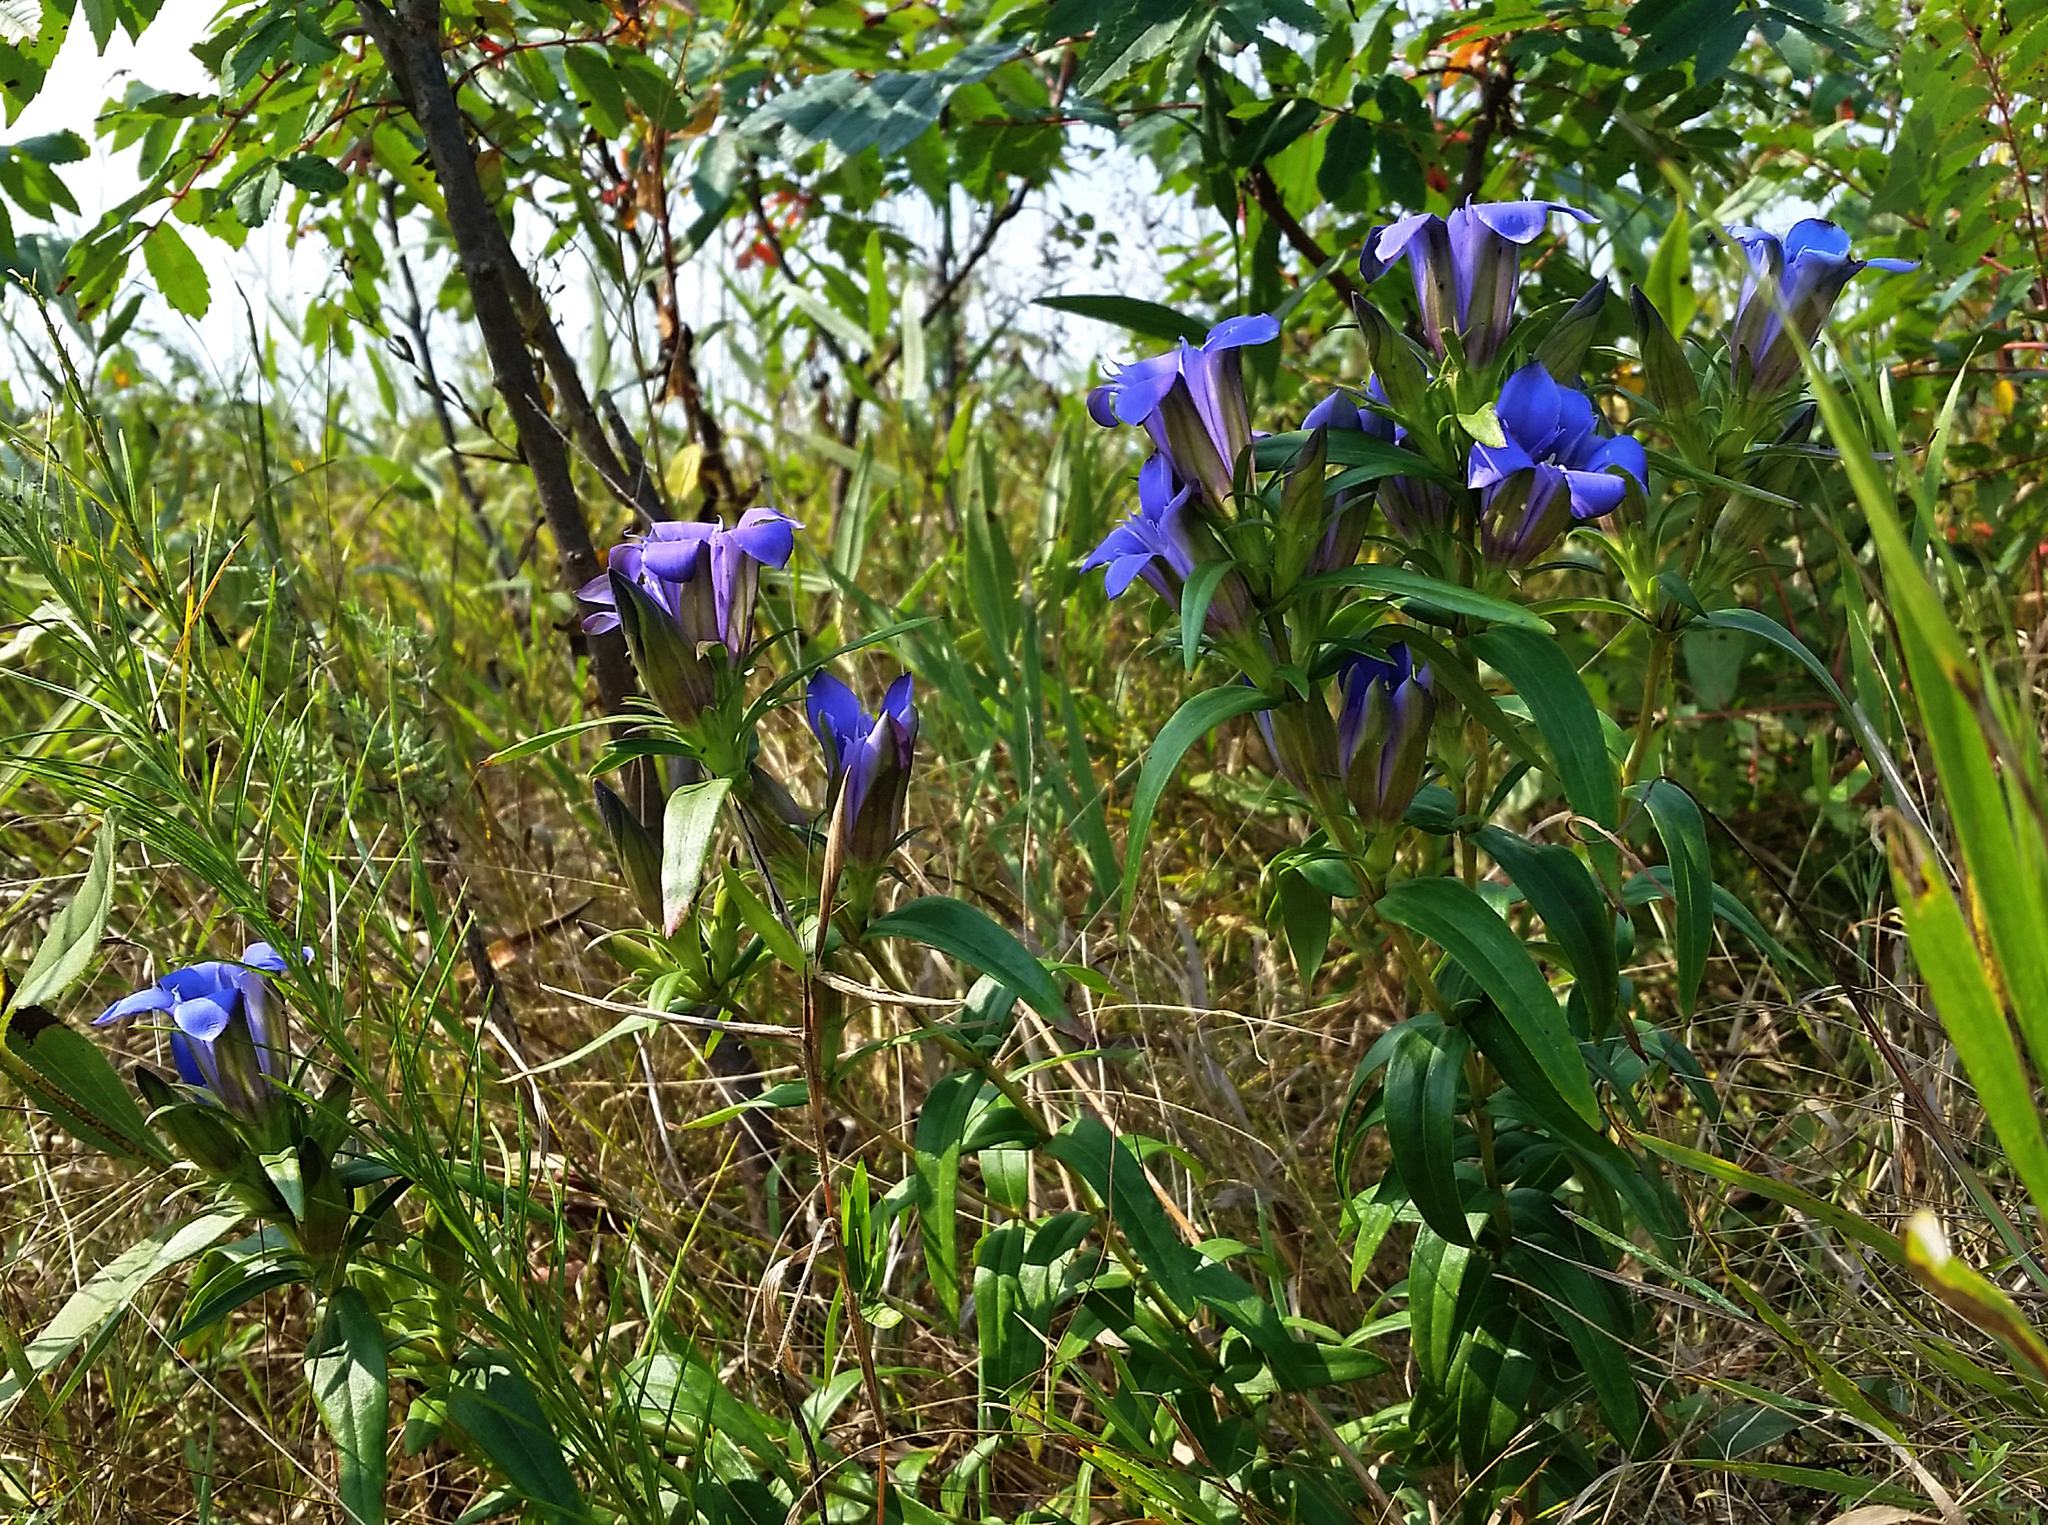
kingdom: Plantae
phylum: Tracheophyta
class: Magnoliopsida
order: Gentianales
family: Gentianaceae
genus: Gentiana
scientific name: Gentiana puberulenta
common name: Downy gentian
